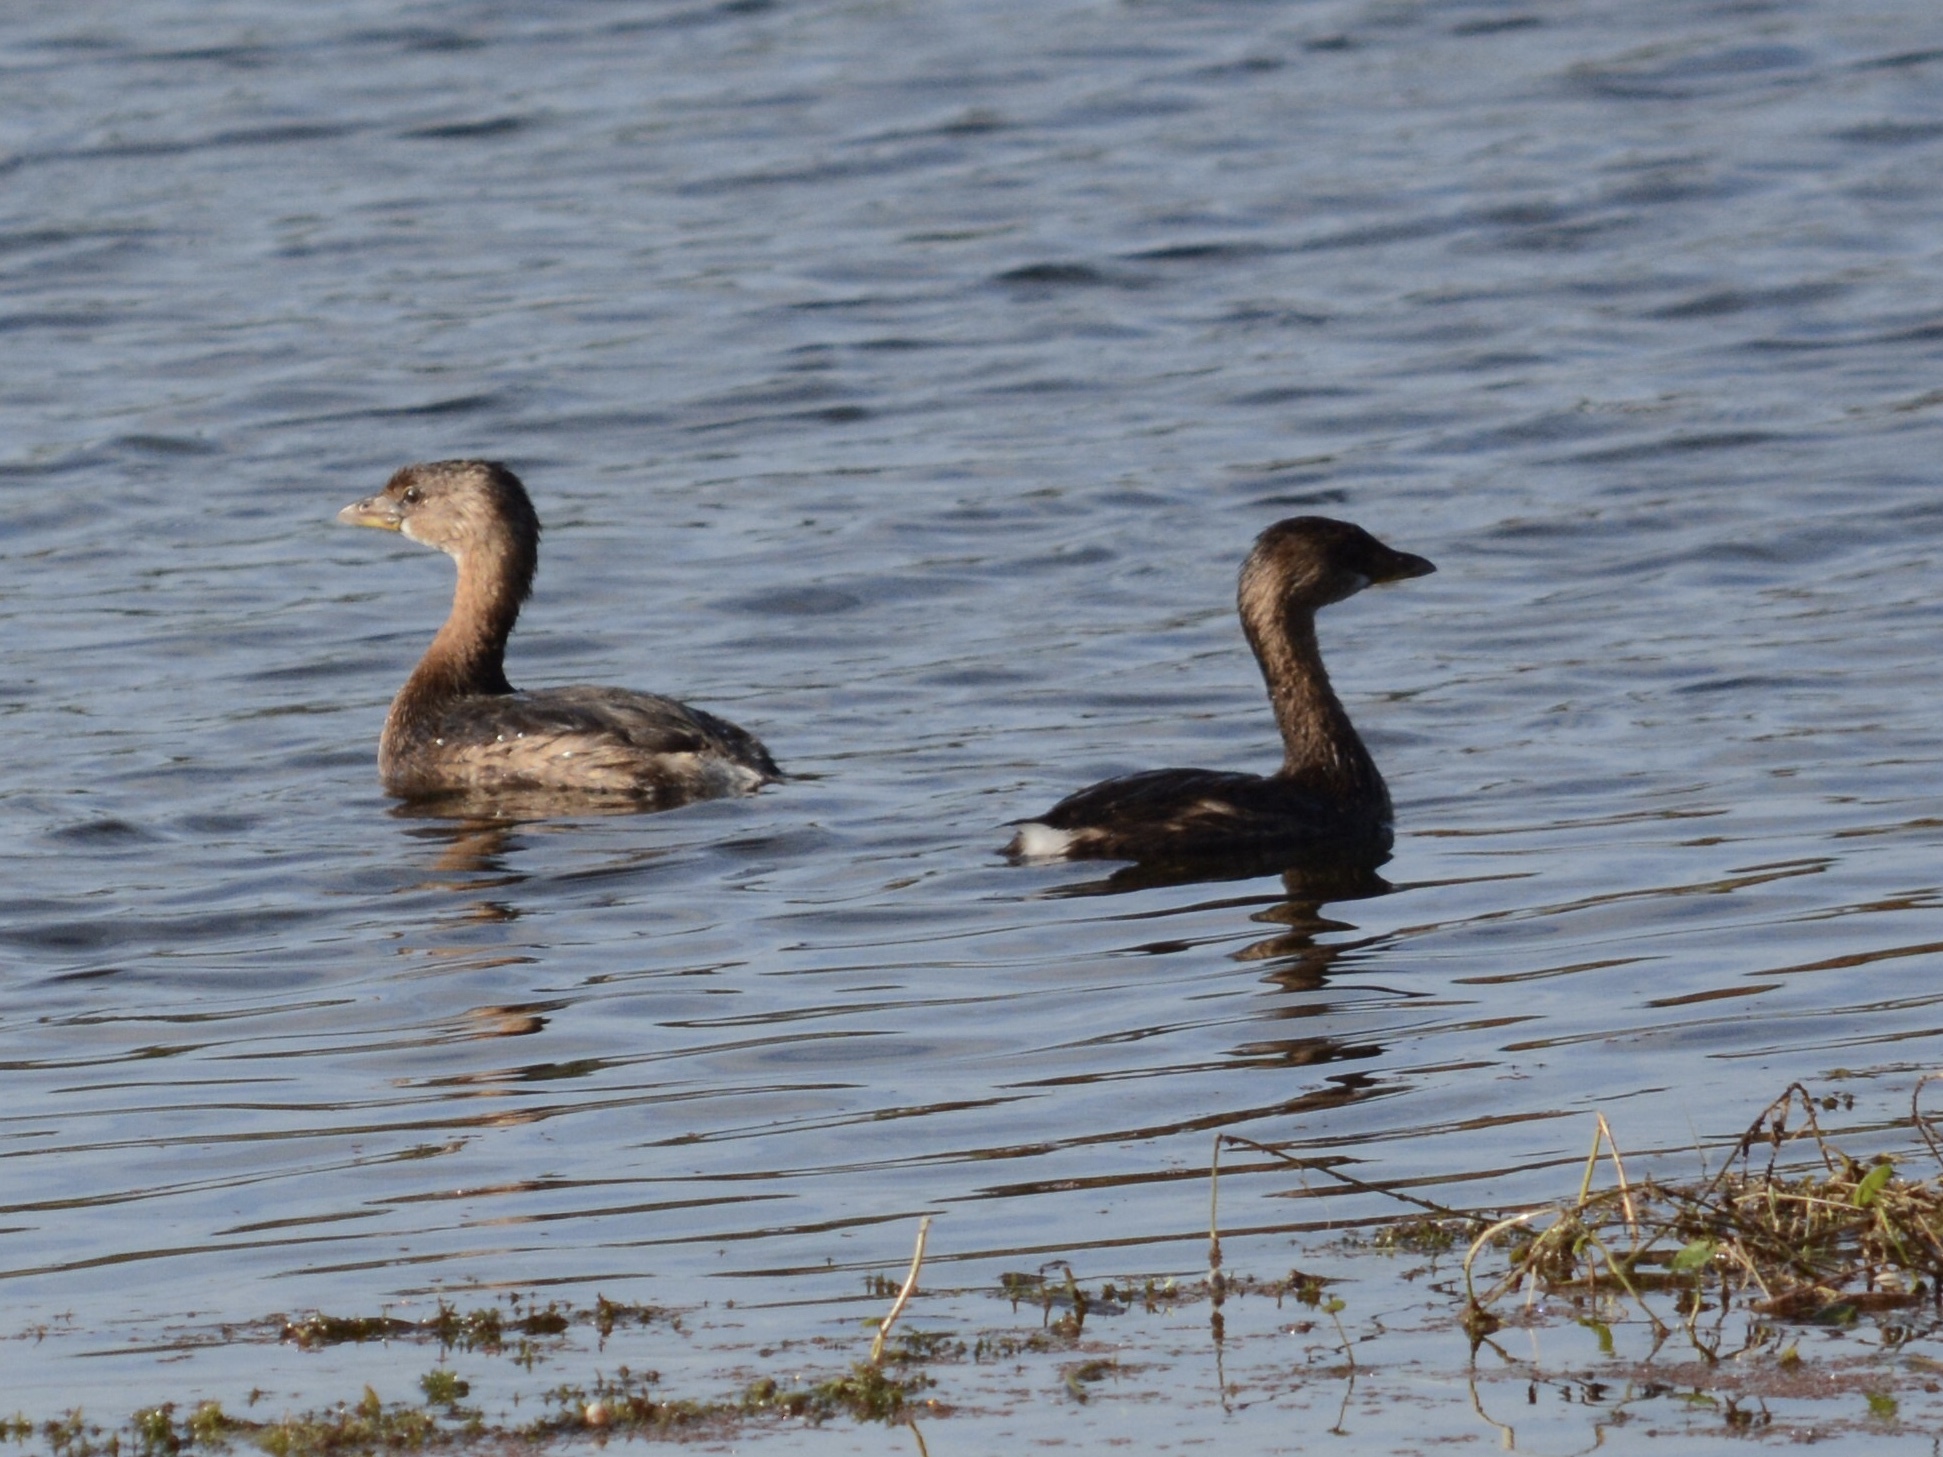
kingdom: Animalia
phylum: Chordata
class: Aves
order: Podicipediformes
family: Podicipedidae
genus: Podilymbus
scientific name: Podilymbus podiceps
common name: Pied-billed grebe
